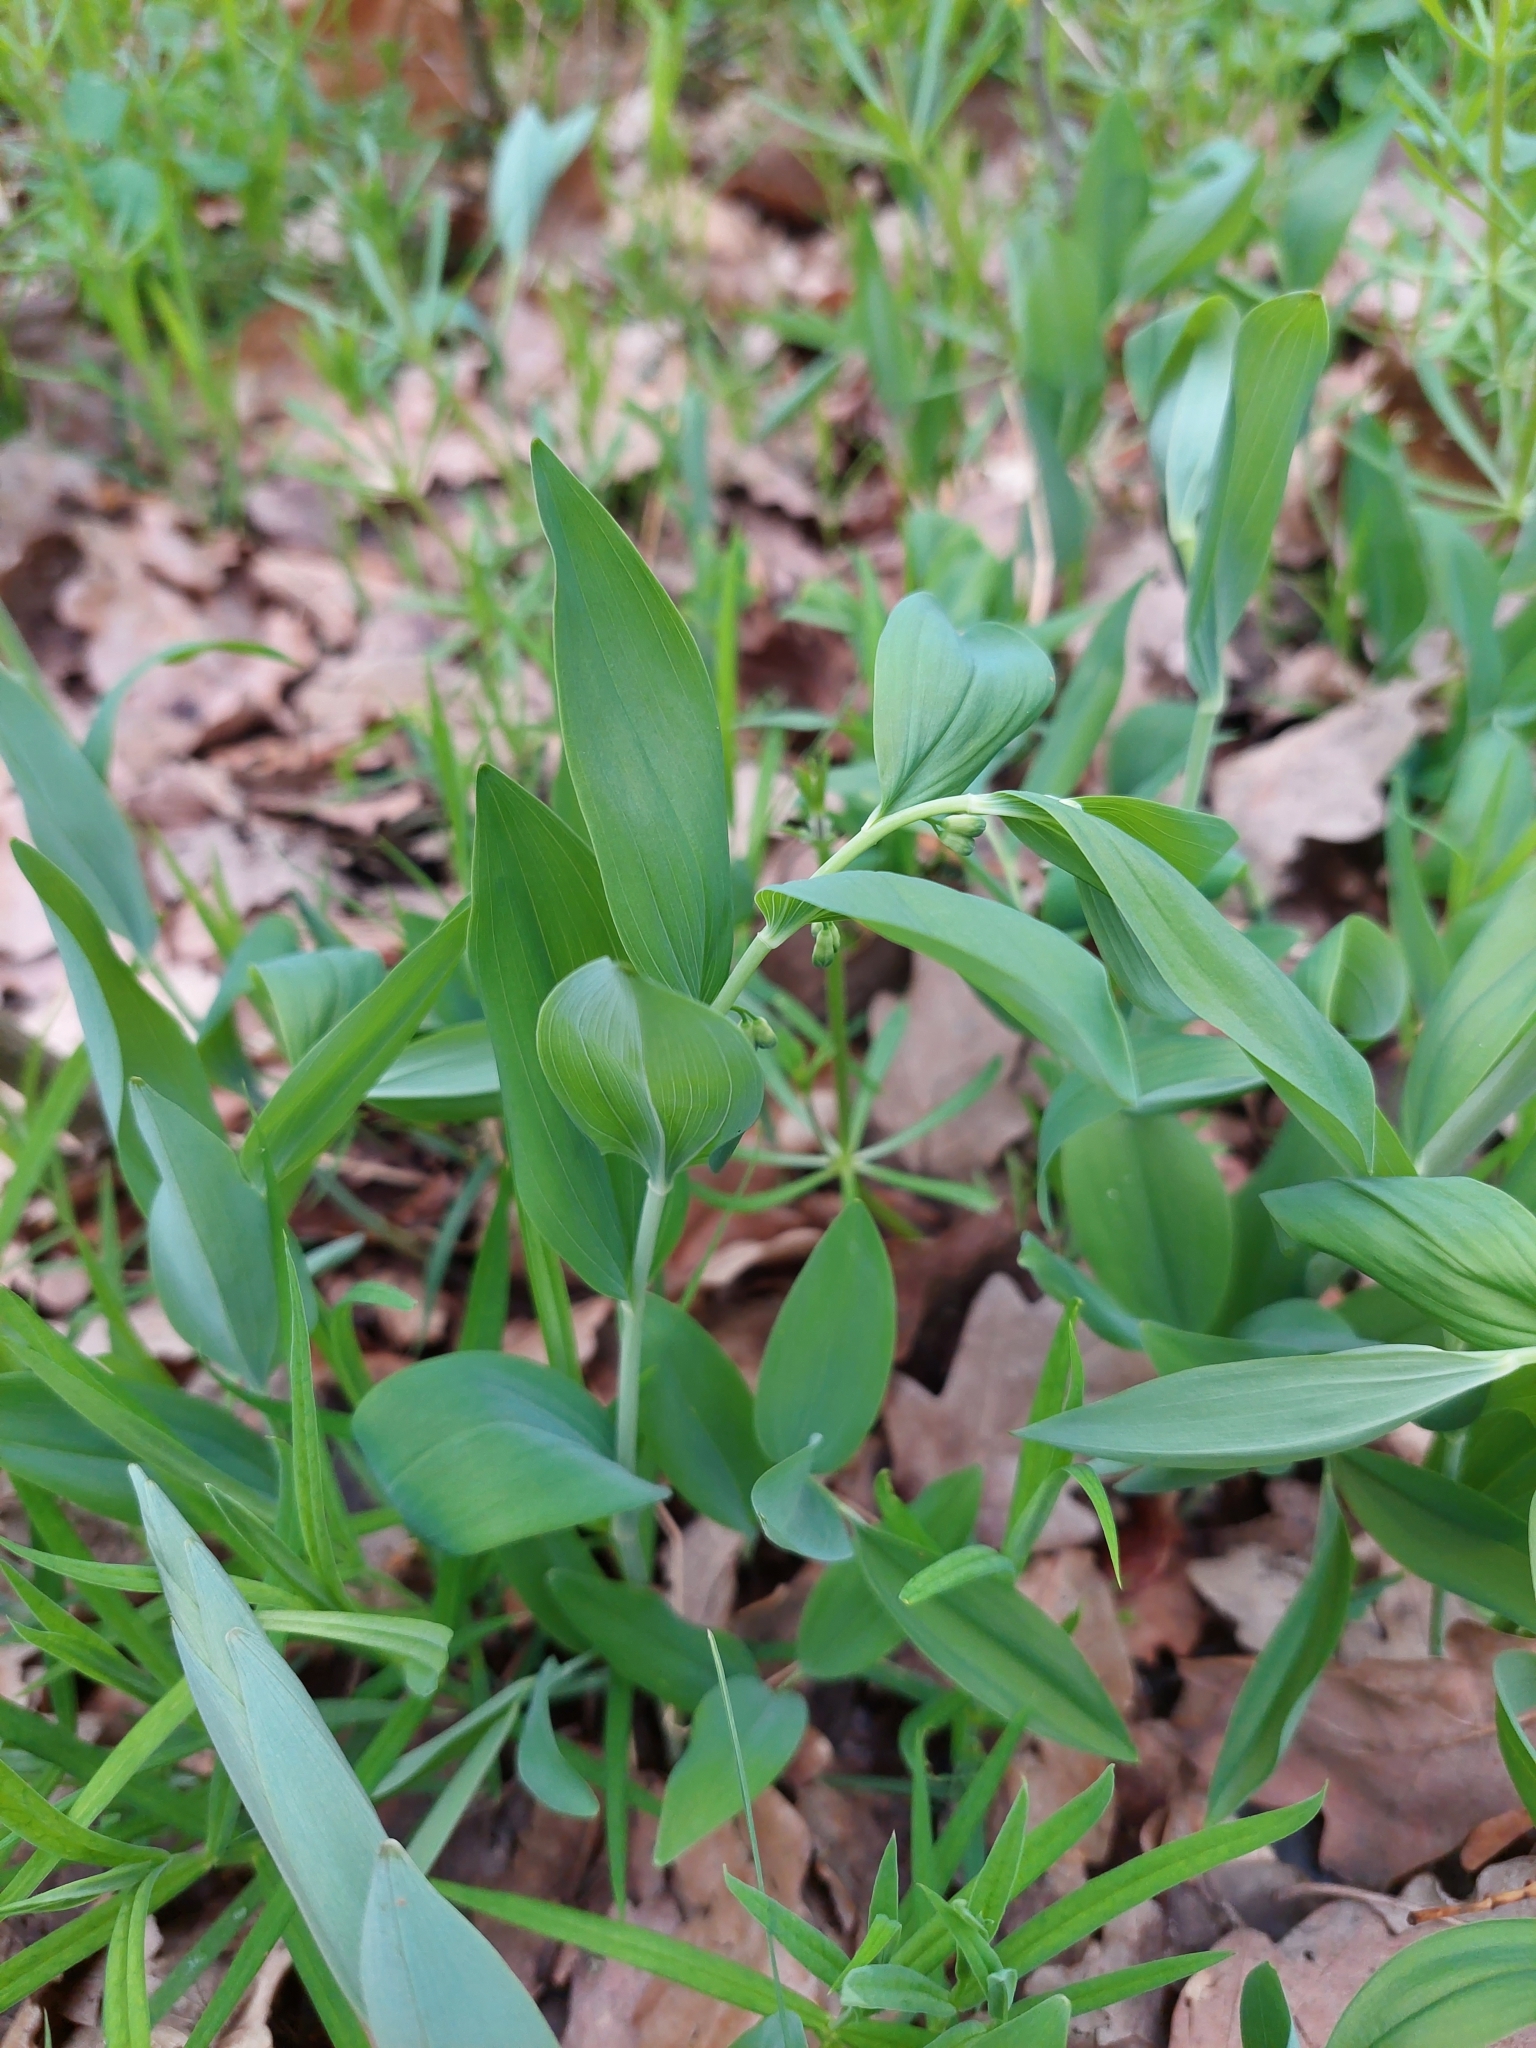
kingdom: Plantae
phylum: Tracheophyta
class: Liliopsida
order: Asparagales
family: Asparagaceae
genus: Polygonatum
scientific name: Polygonatum multiflorum
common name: Solomon's-seal
